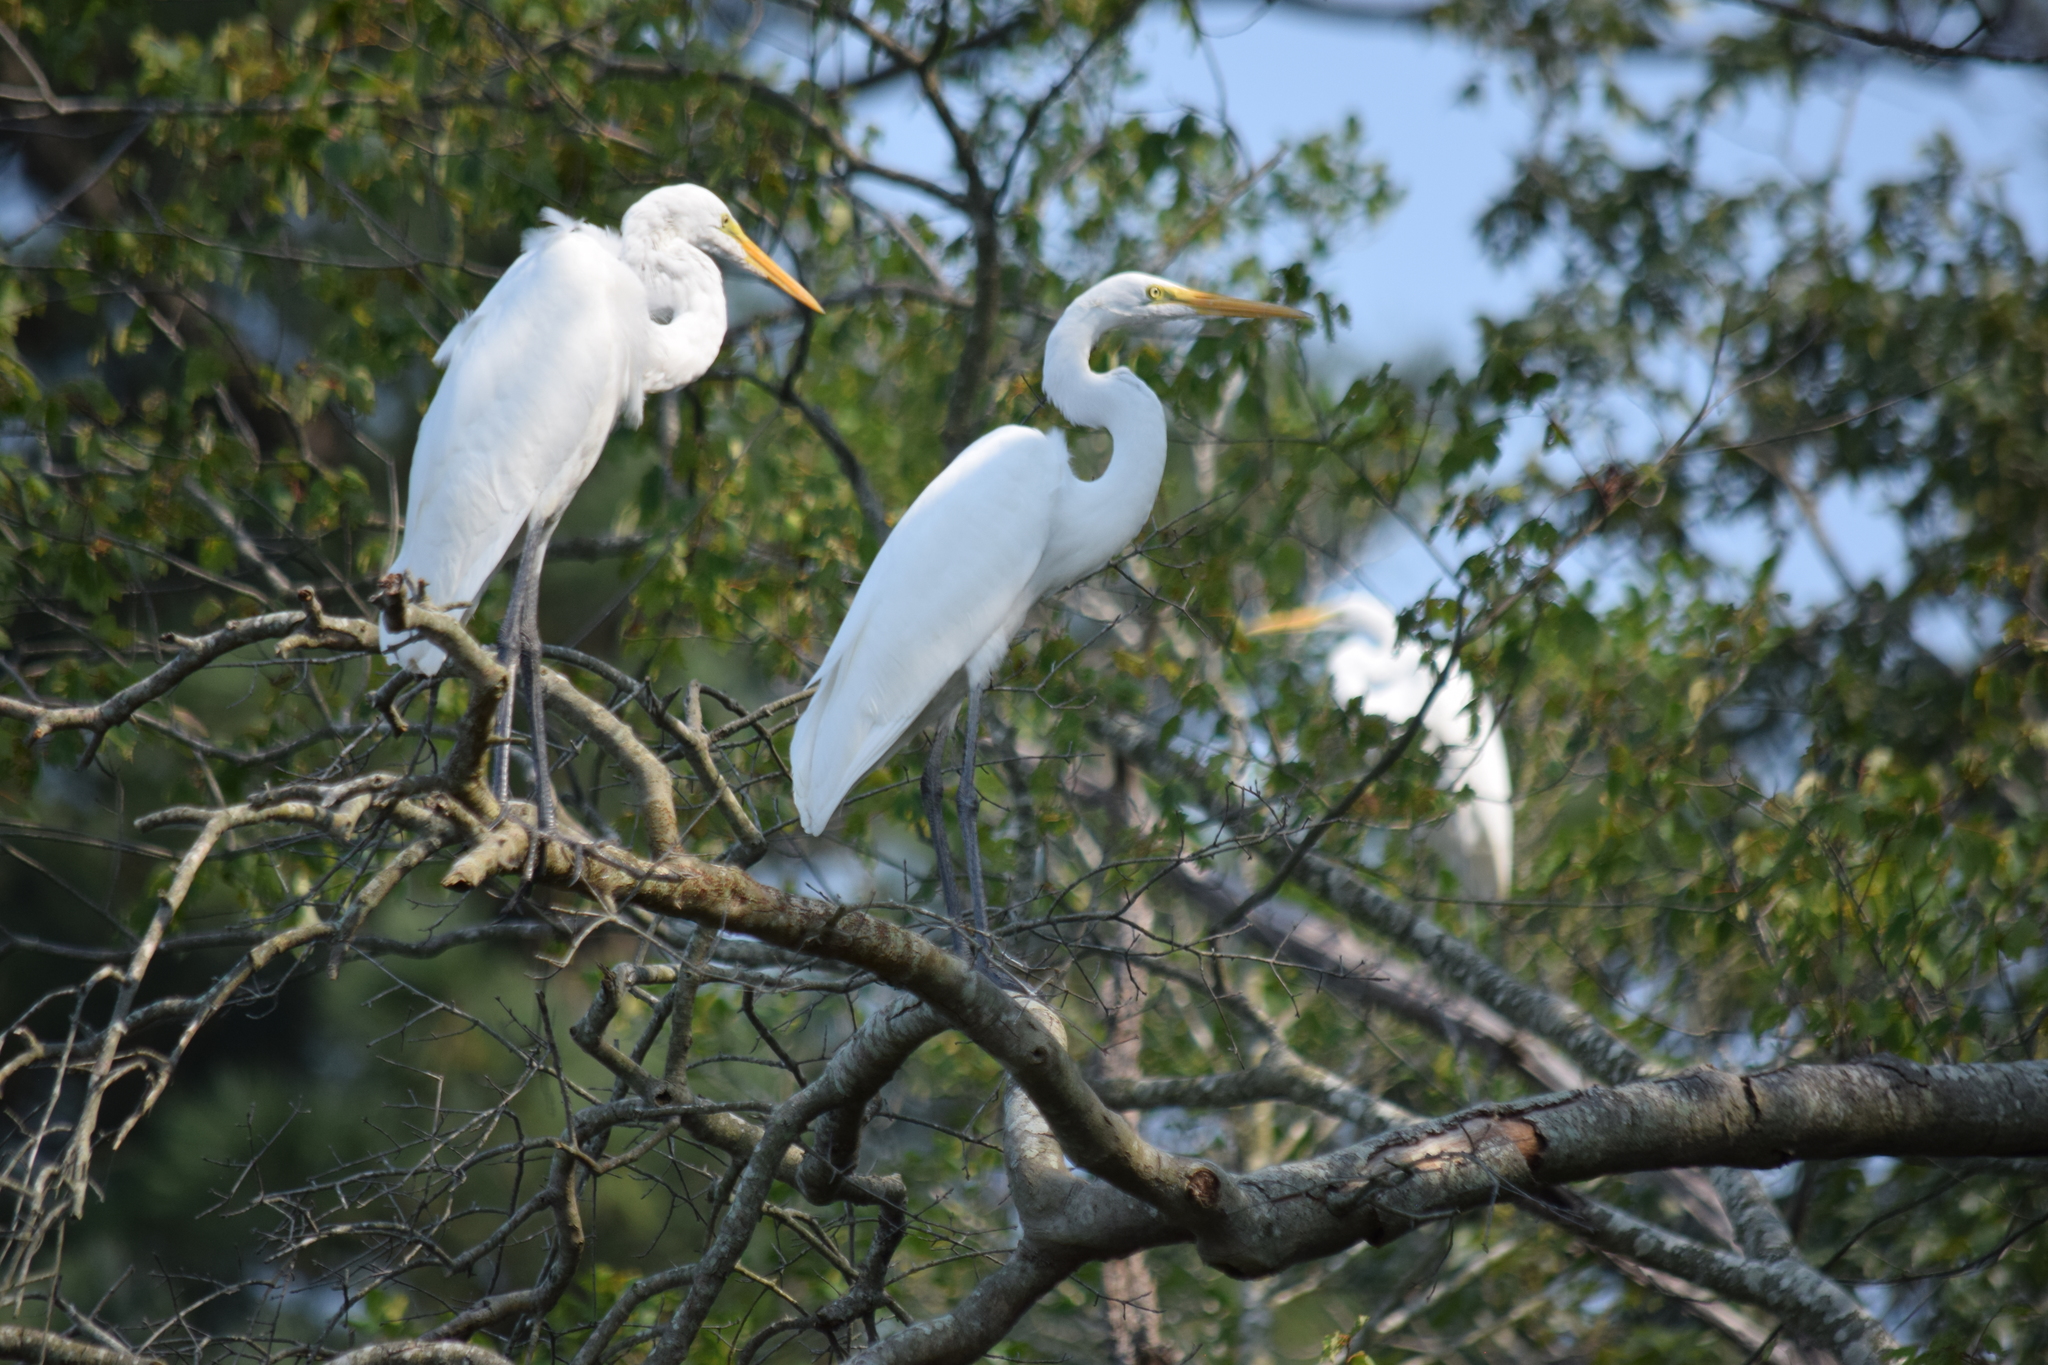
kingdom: Animalia
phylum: Chordata
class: Aves
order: Pelecaniformes
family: Ardeidae
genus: Ardea
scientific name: Ardea alba
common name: Great egret
